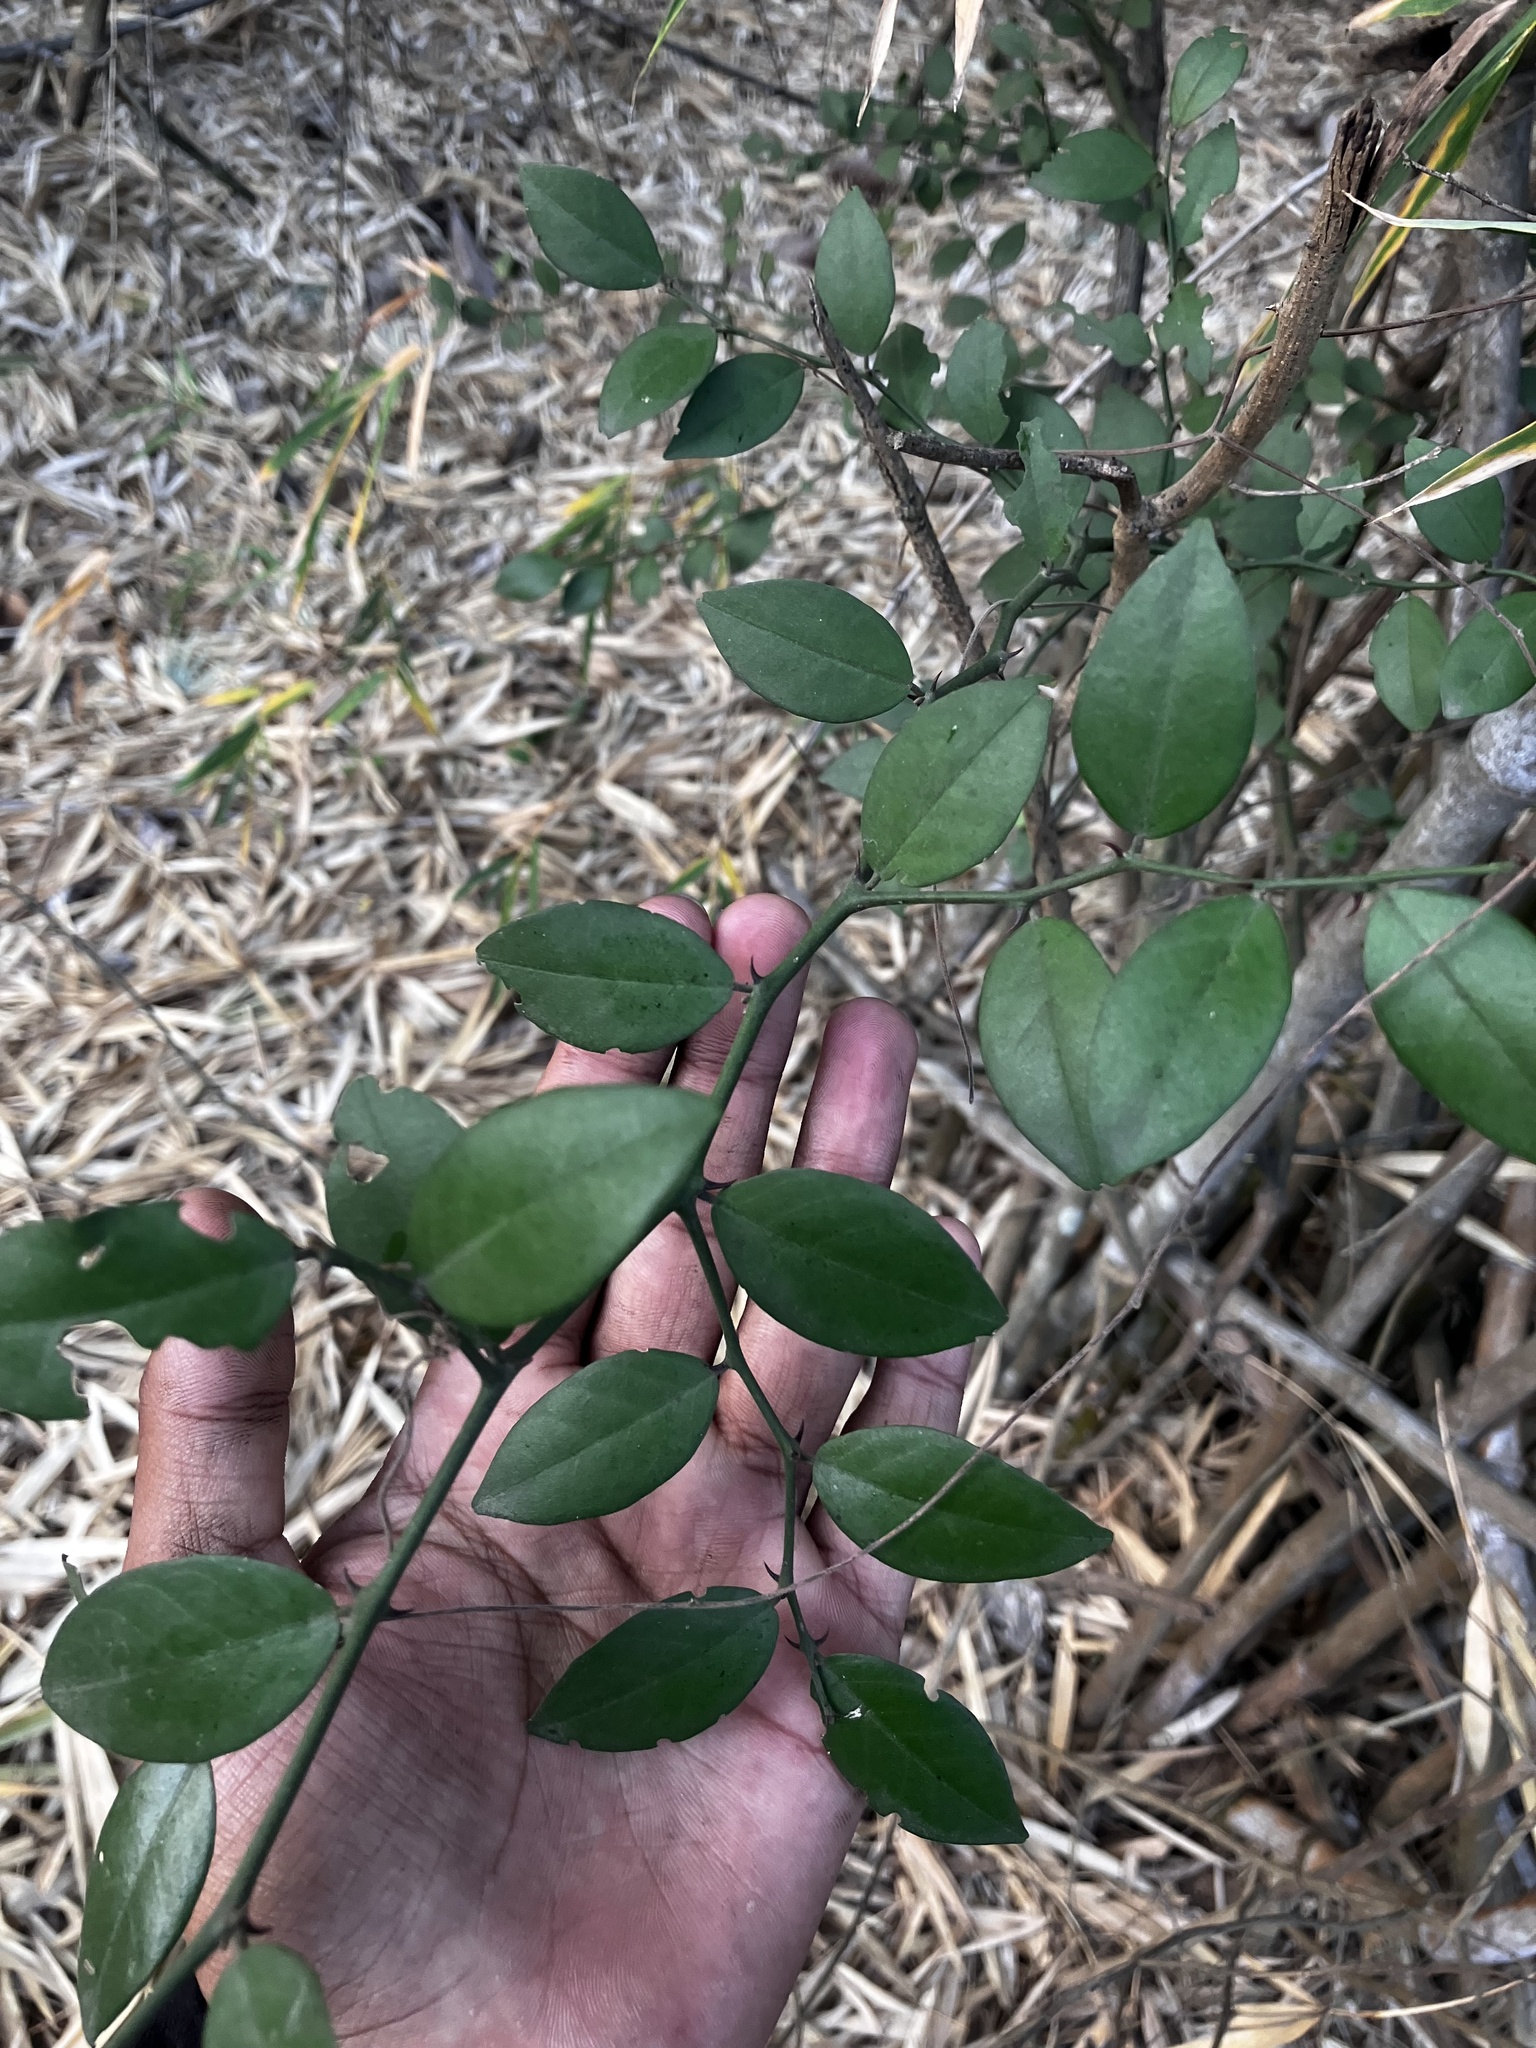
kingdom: Plantae
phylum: Tracheophyta
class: Magnoliopsida
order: Brassicales
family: Capparaceae
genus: Capparis
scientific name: Capparis sepiaria
